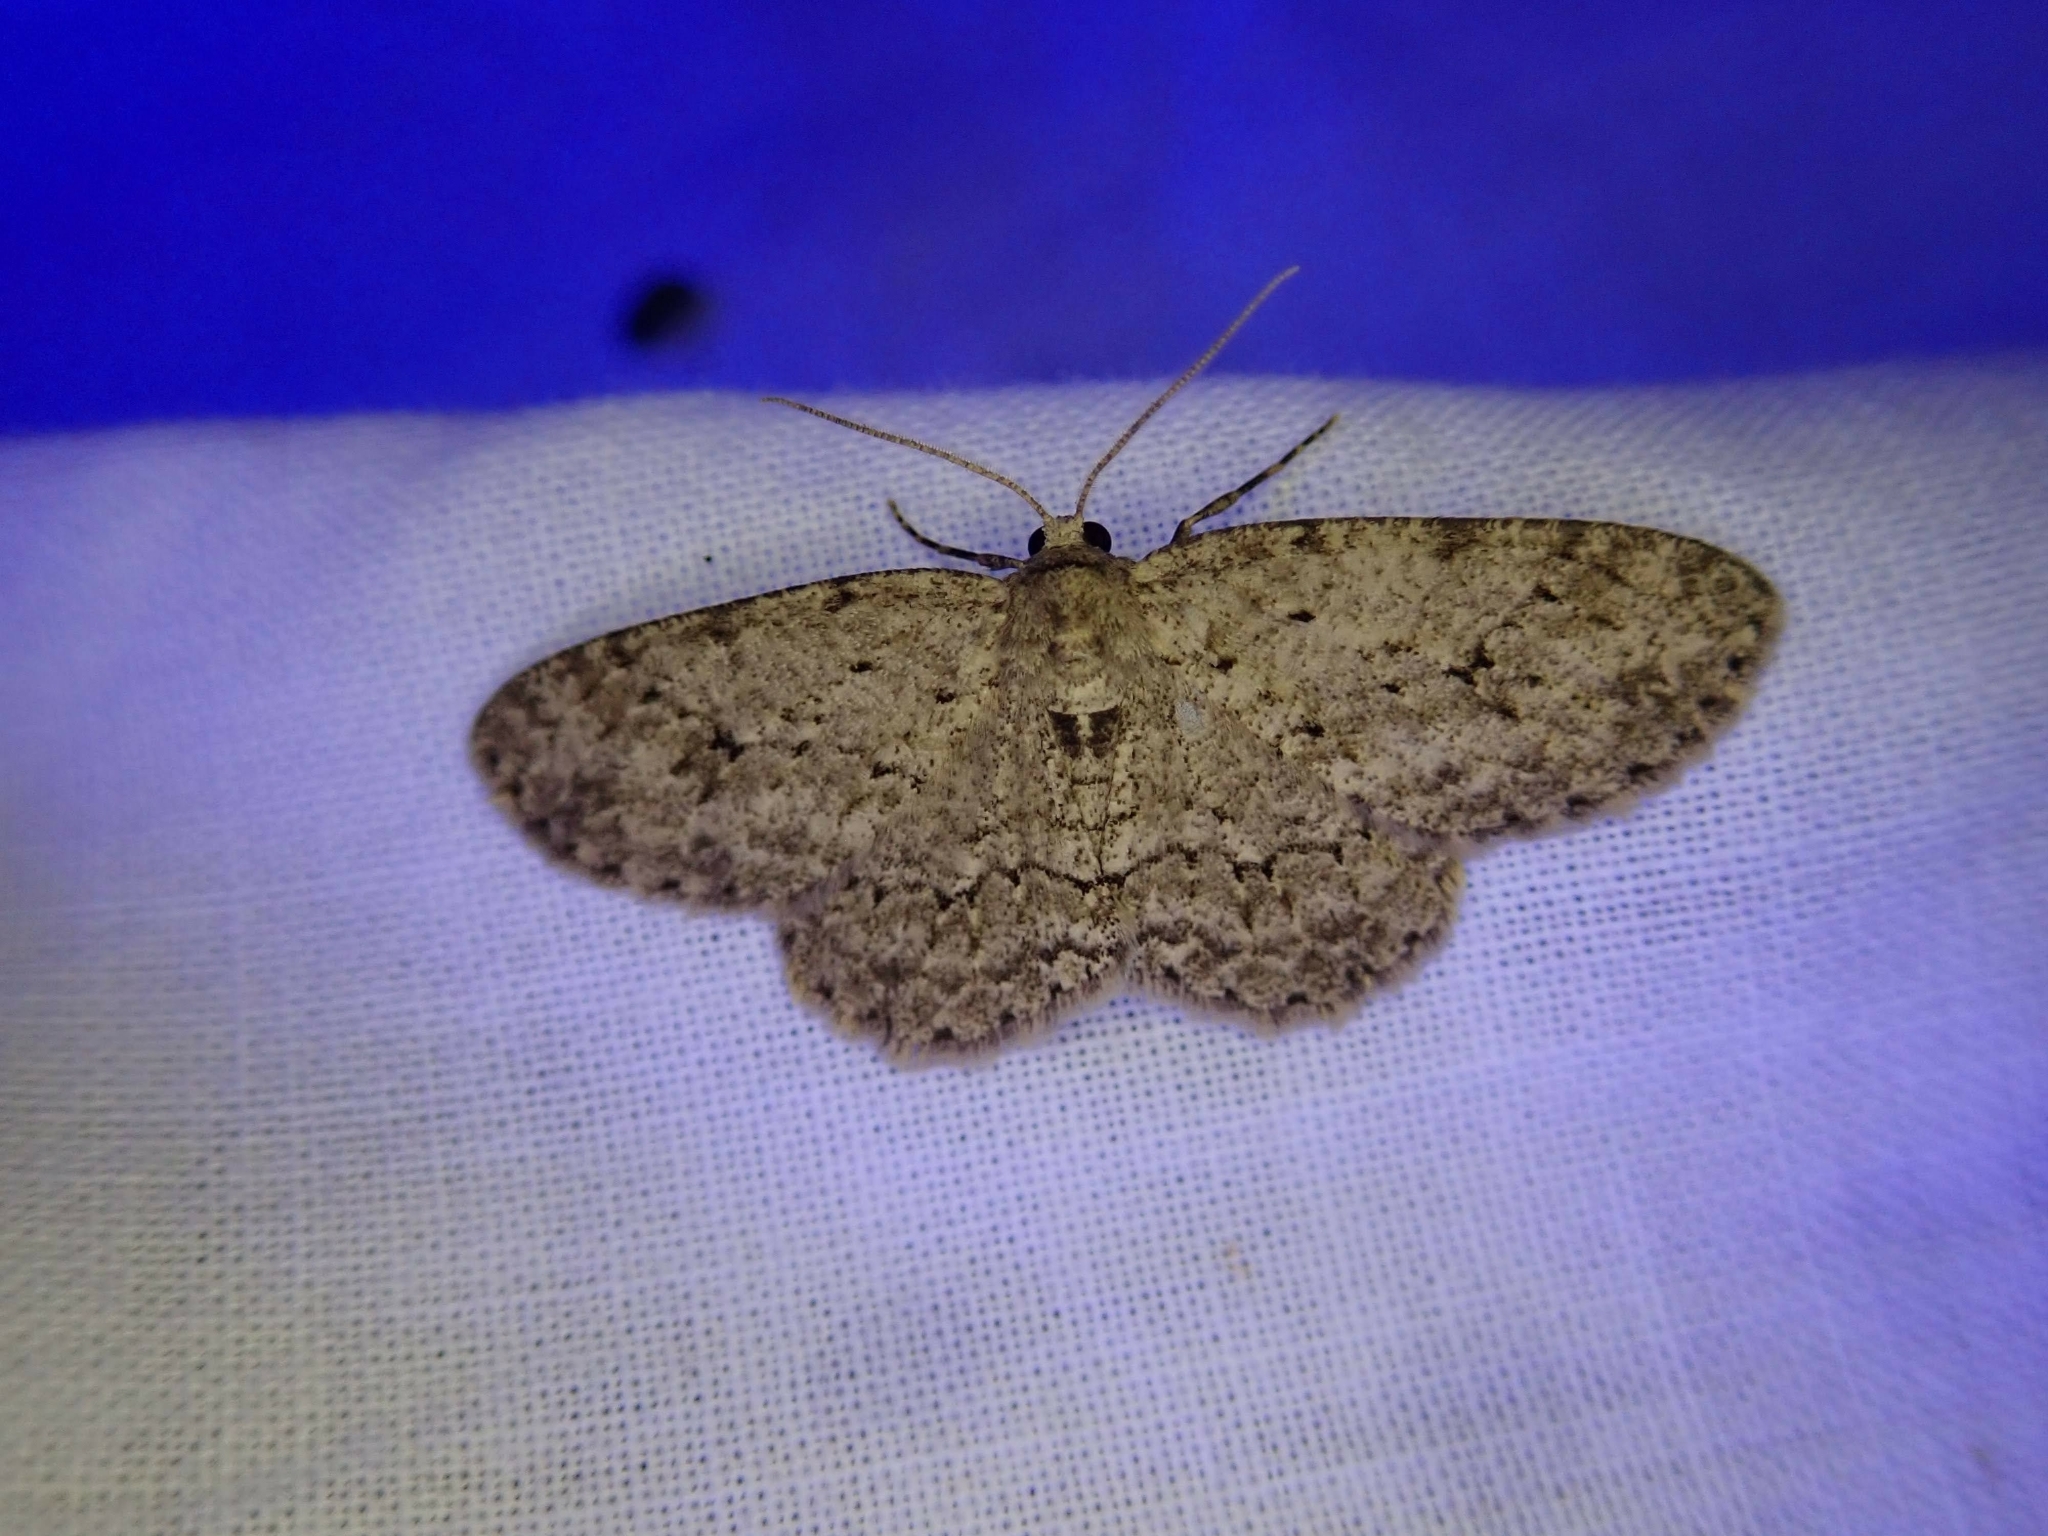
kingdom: Animalia
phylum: Arthropoda
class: Insecta
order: Lepidoptera
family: Geometridae
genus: Ectropis
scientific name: Ectropis crepuscularia
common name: Engrailed
